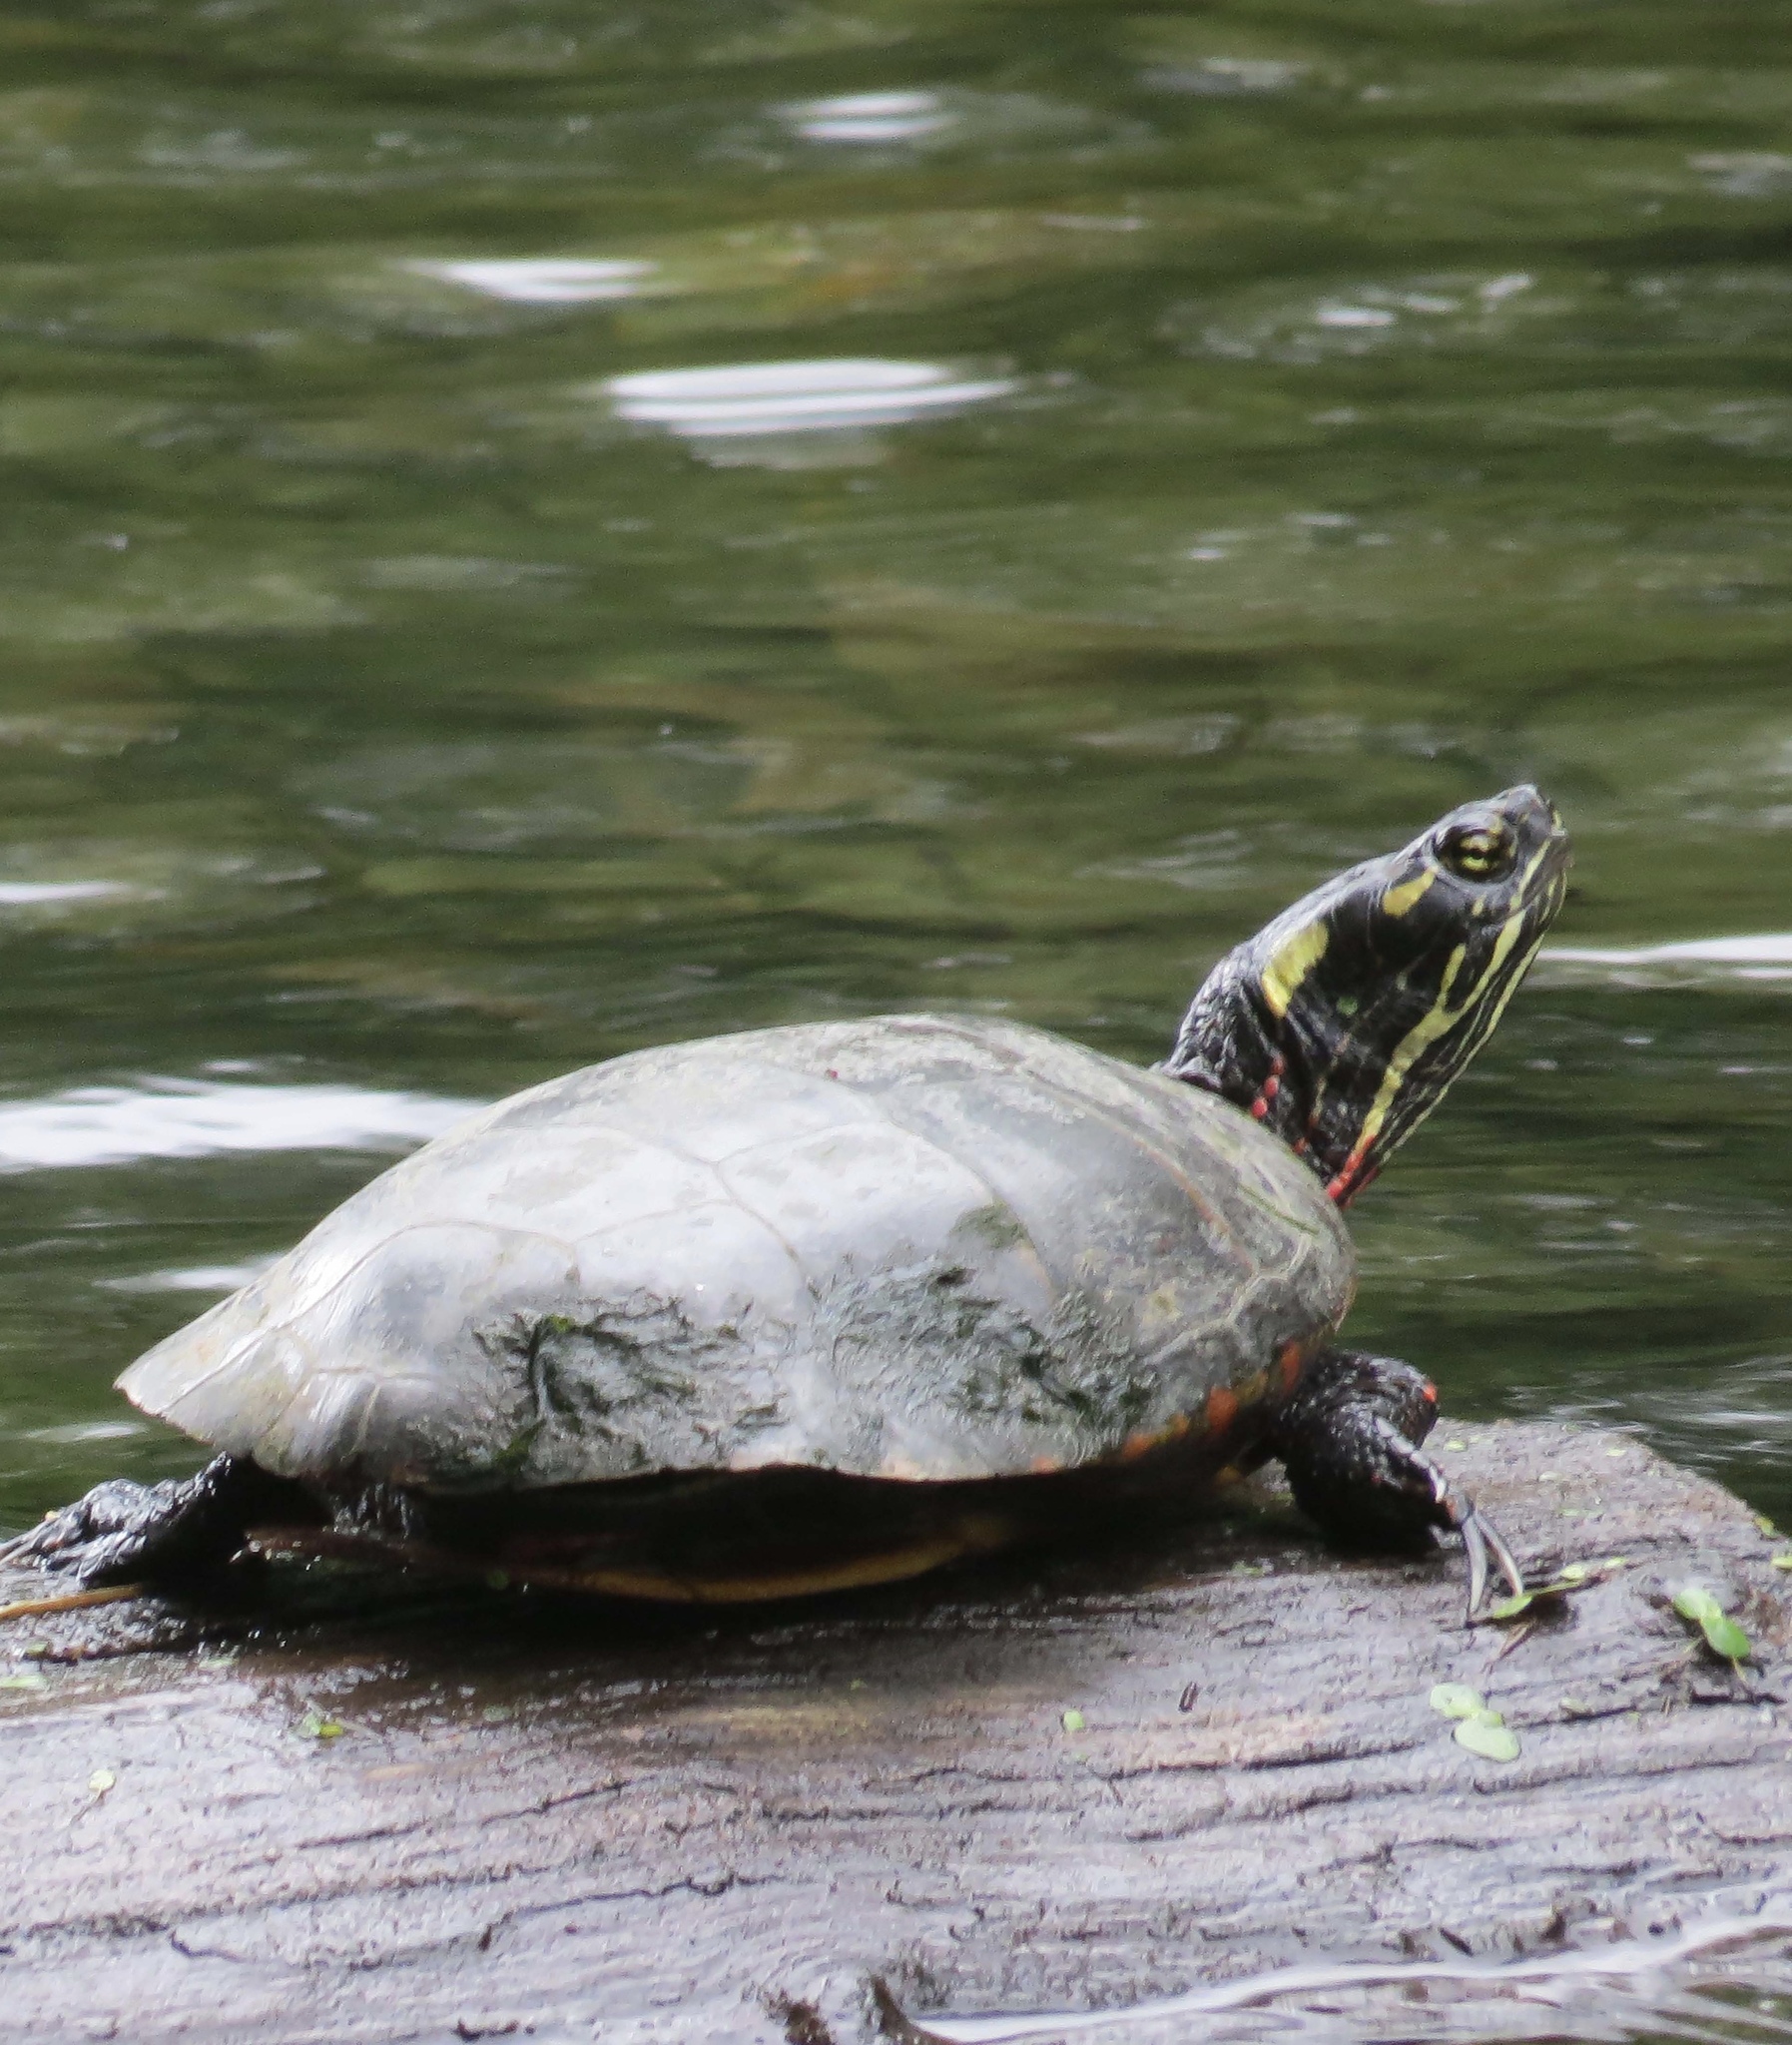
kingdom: Animalia
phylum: Chordata
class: Testudines
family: Emydidae
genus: Chrysemys
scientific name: Chrysemys picta
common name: Painted turtle
